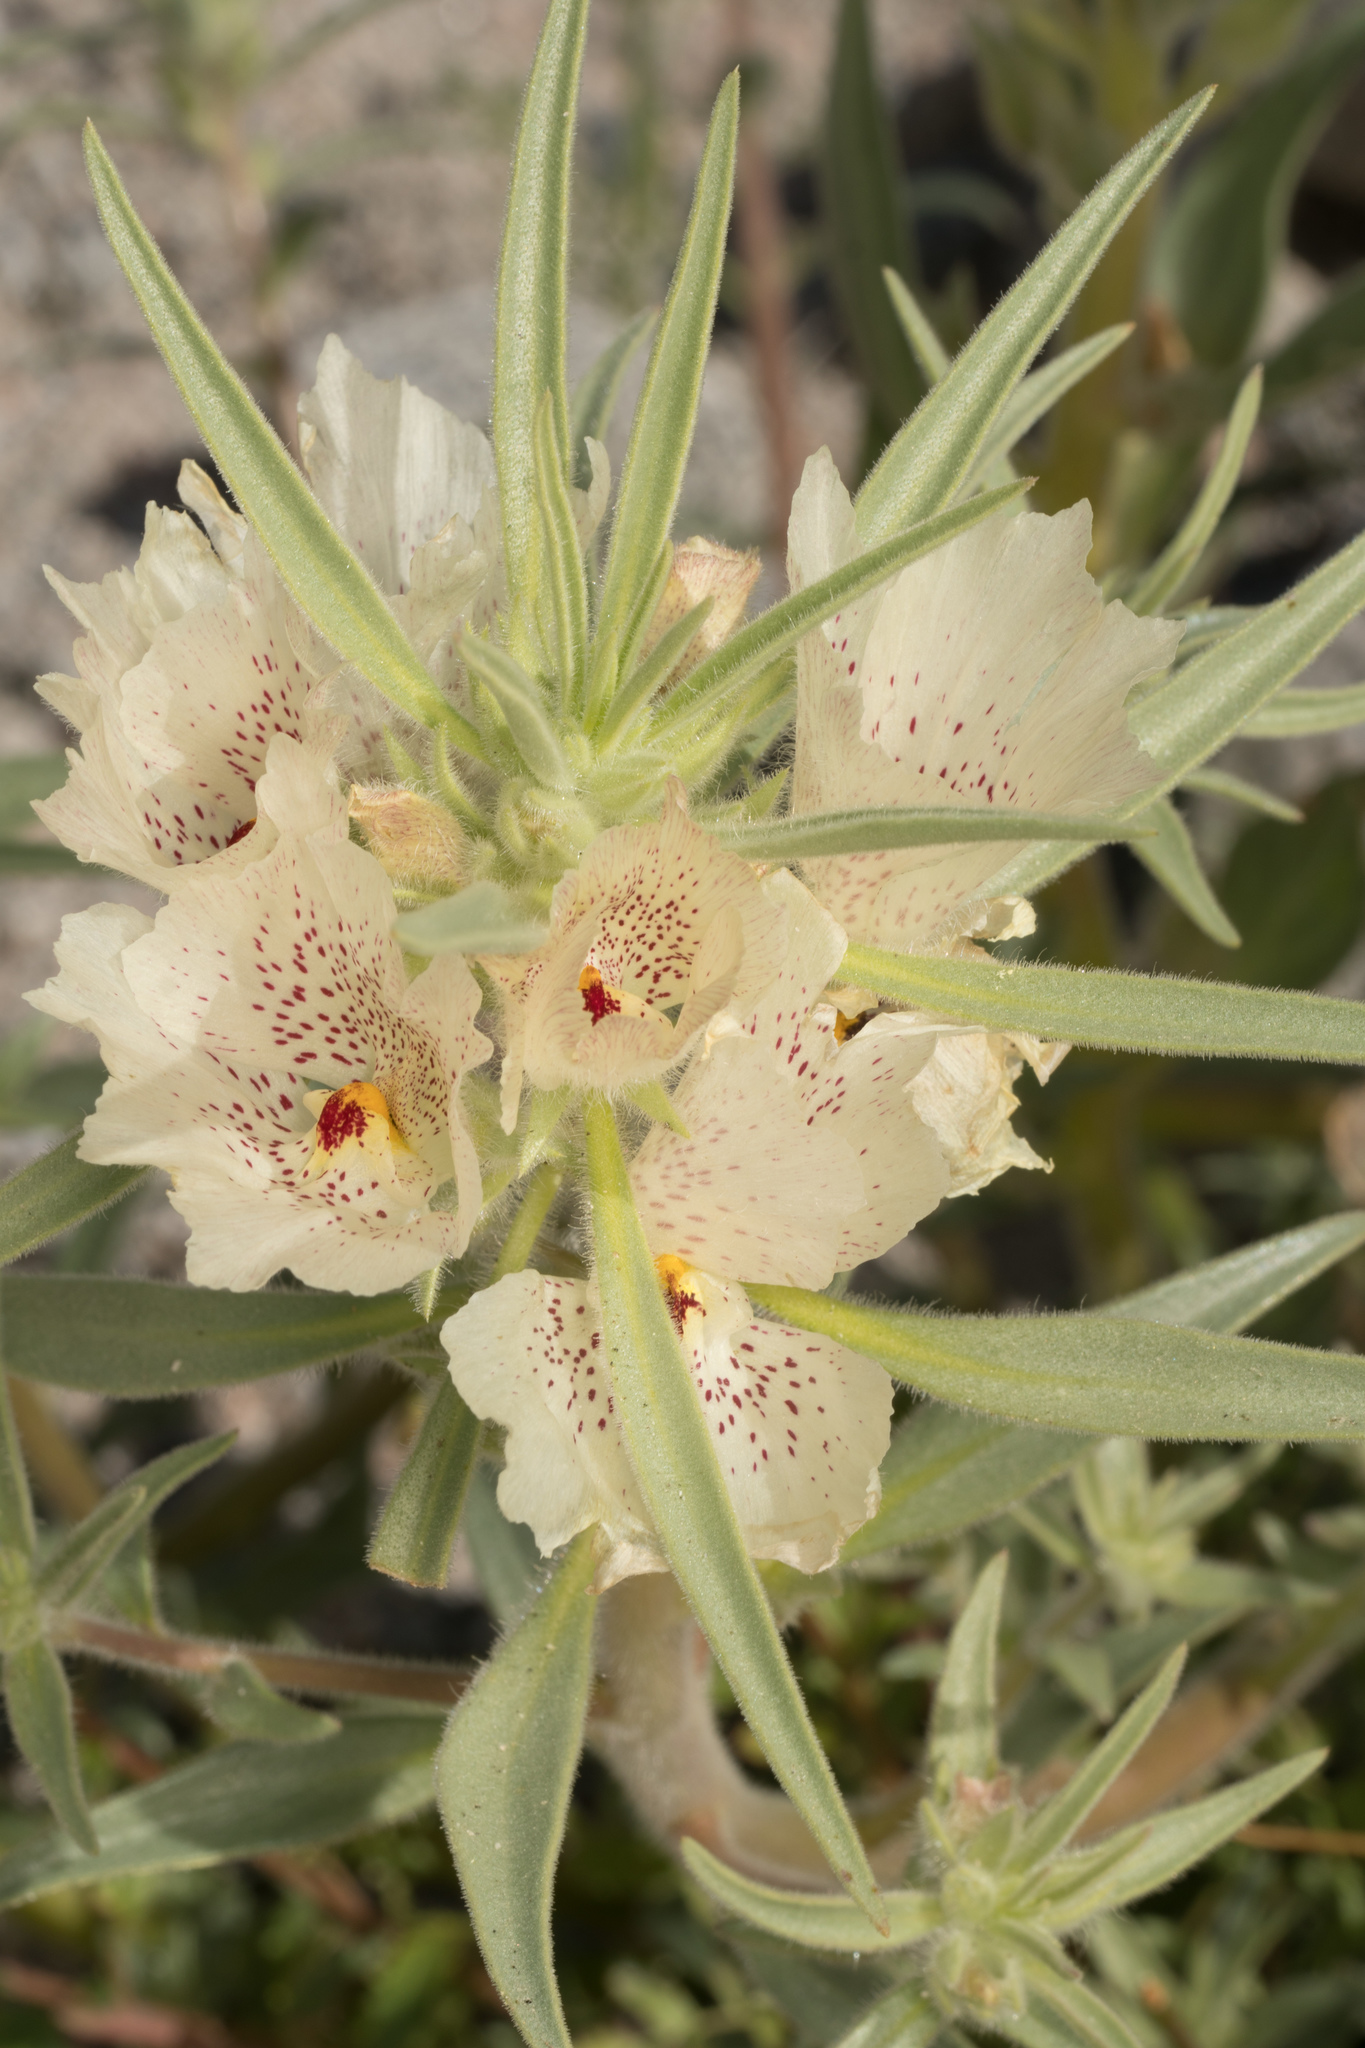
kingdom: Plantae
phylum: Tracheophyta
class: Magnoliopsida
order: Lamiales
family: Plantaginaceae
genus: Mohavea
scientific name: Mohavea confertiflora
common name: Ghost flower
